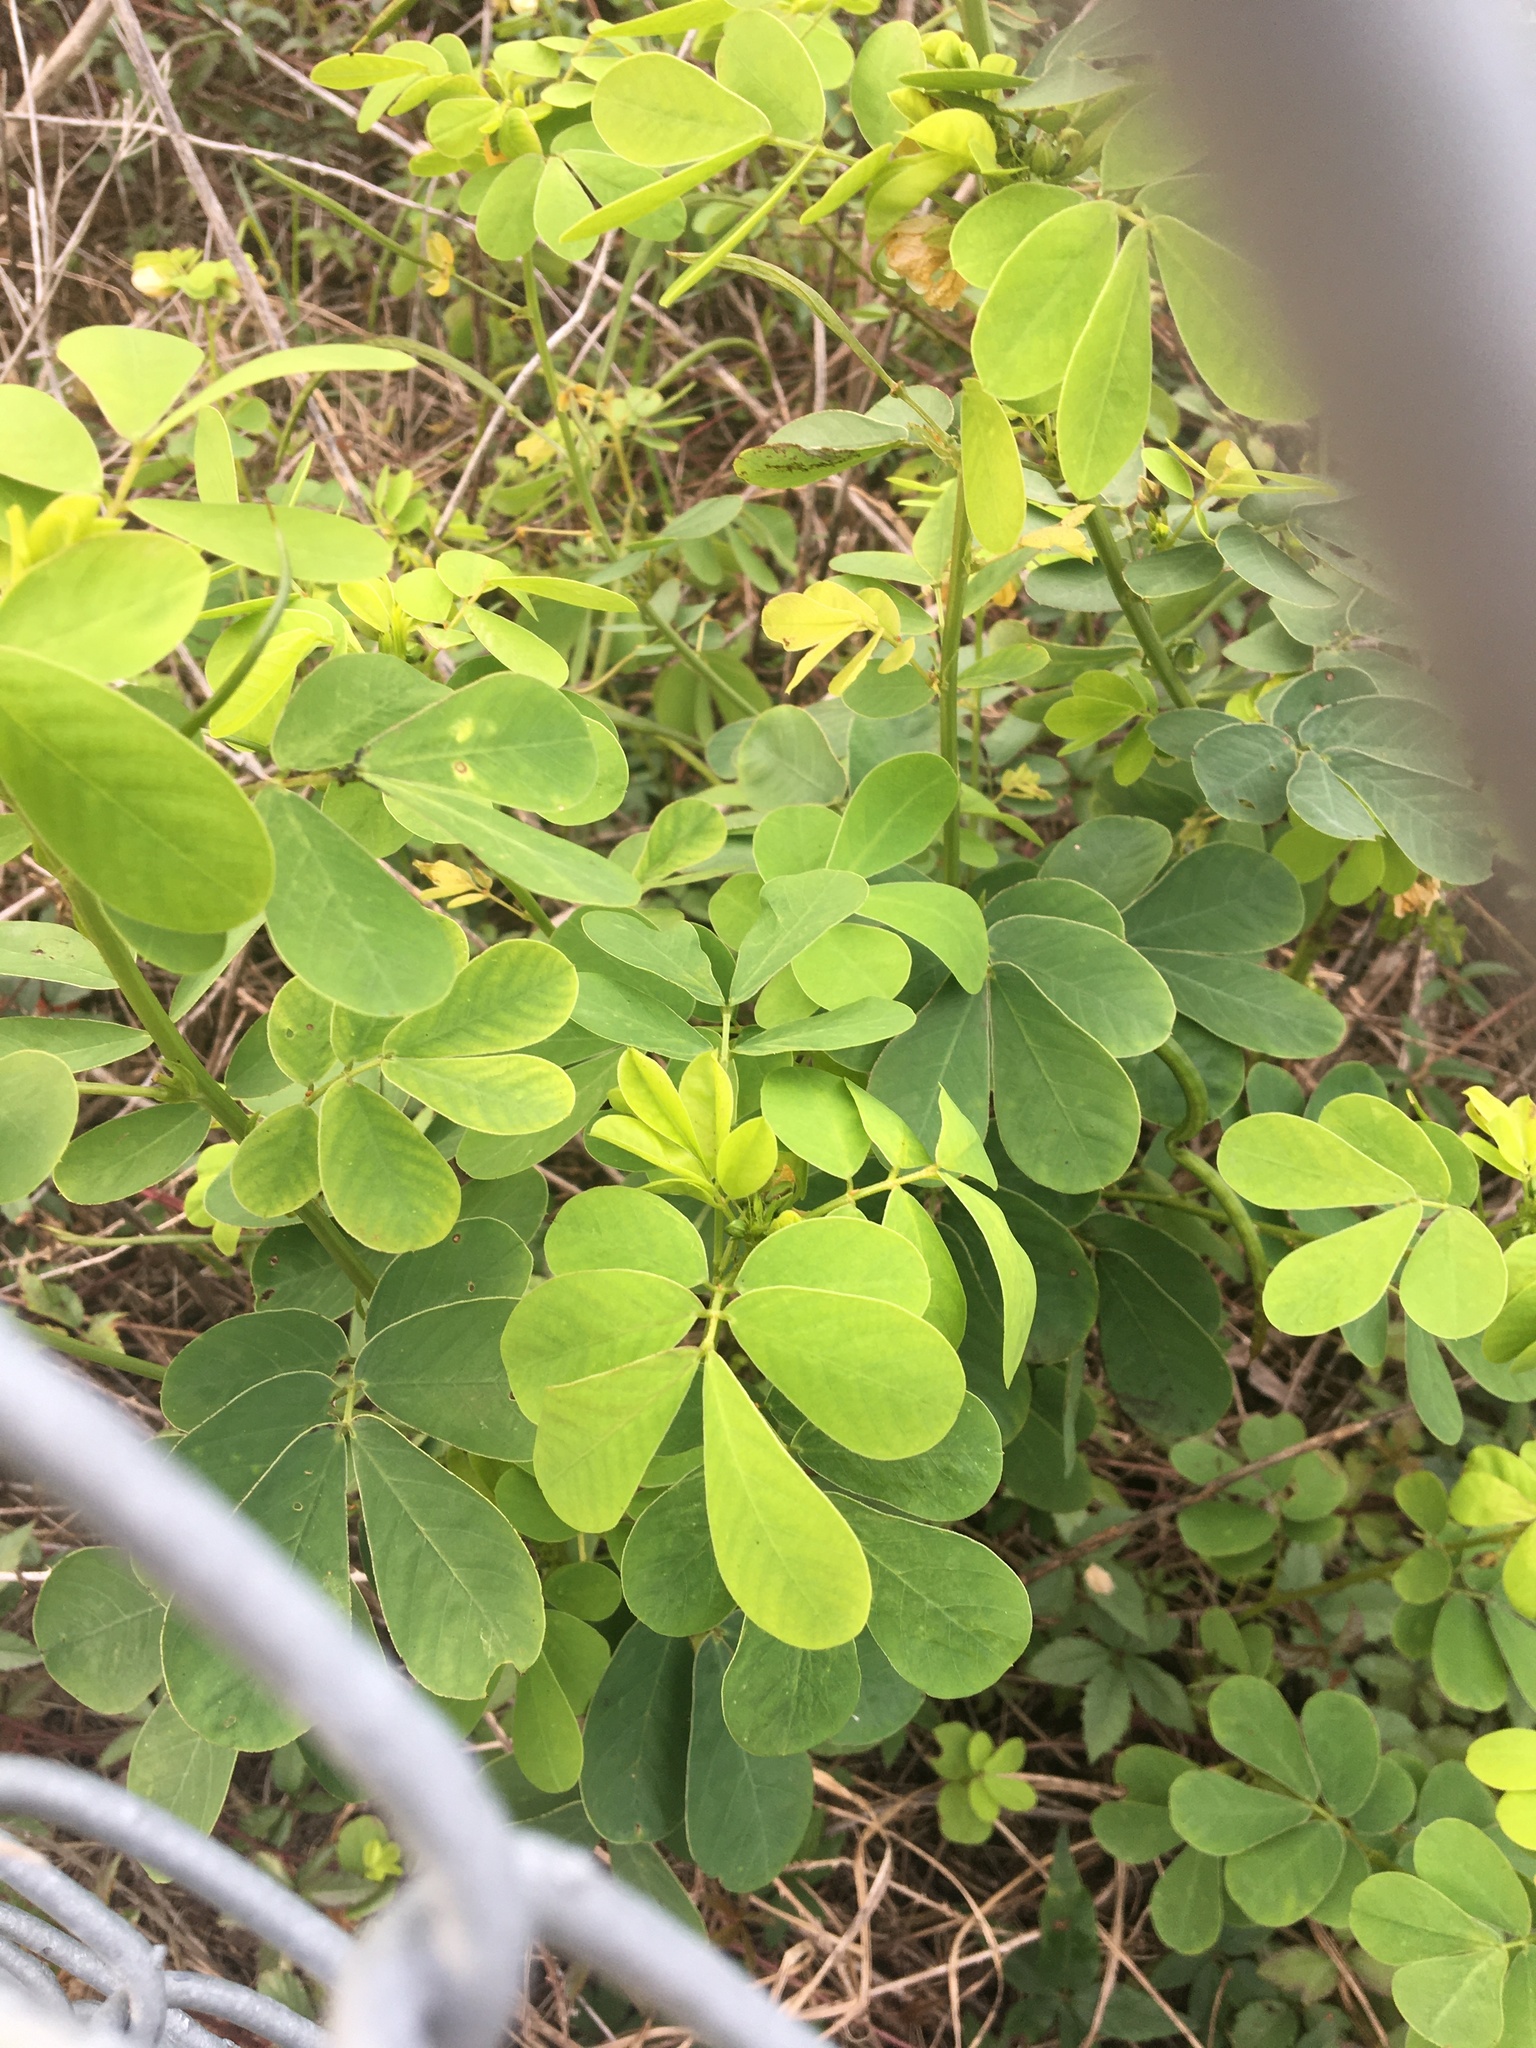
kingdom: Plantae
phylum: Tracheophyta
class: Magnoliopsida
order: Fabales
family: Fabaceae
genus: Senna
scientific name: Senna obtusifolia
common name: Java-bean
